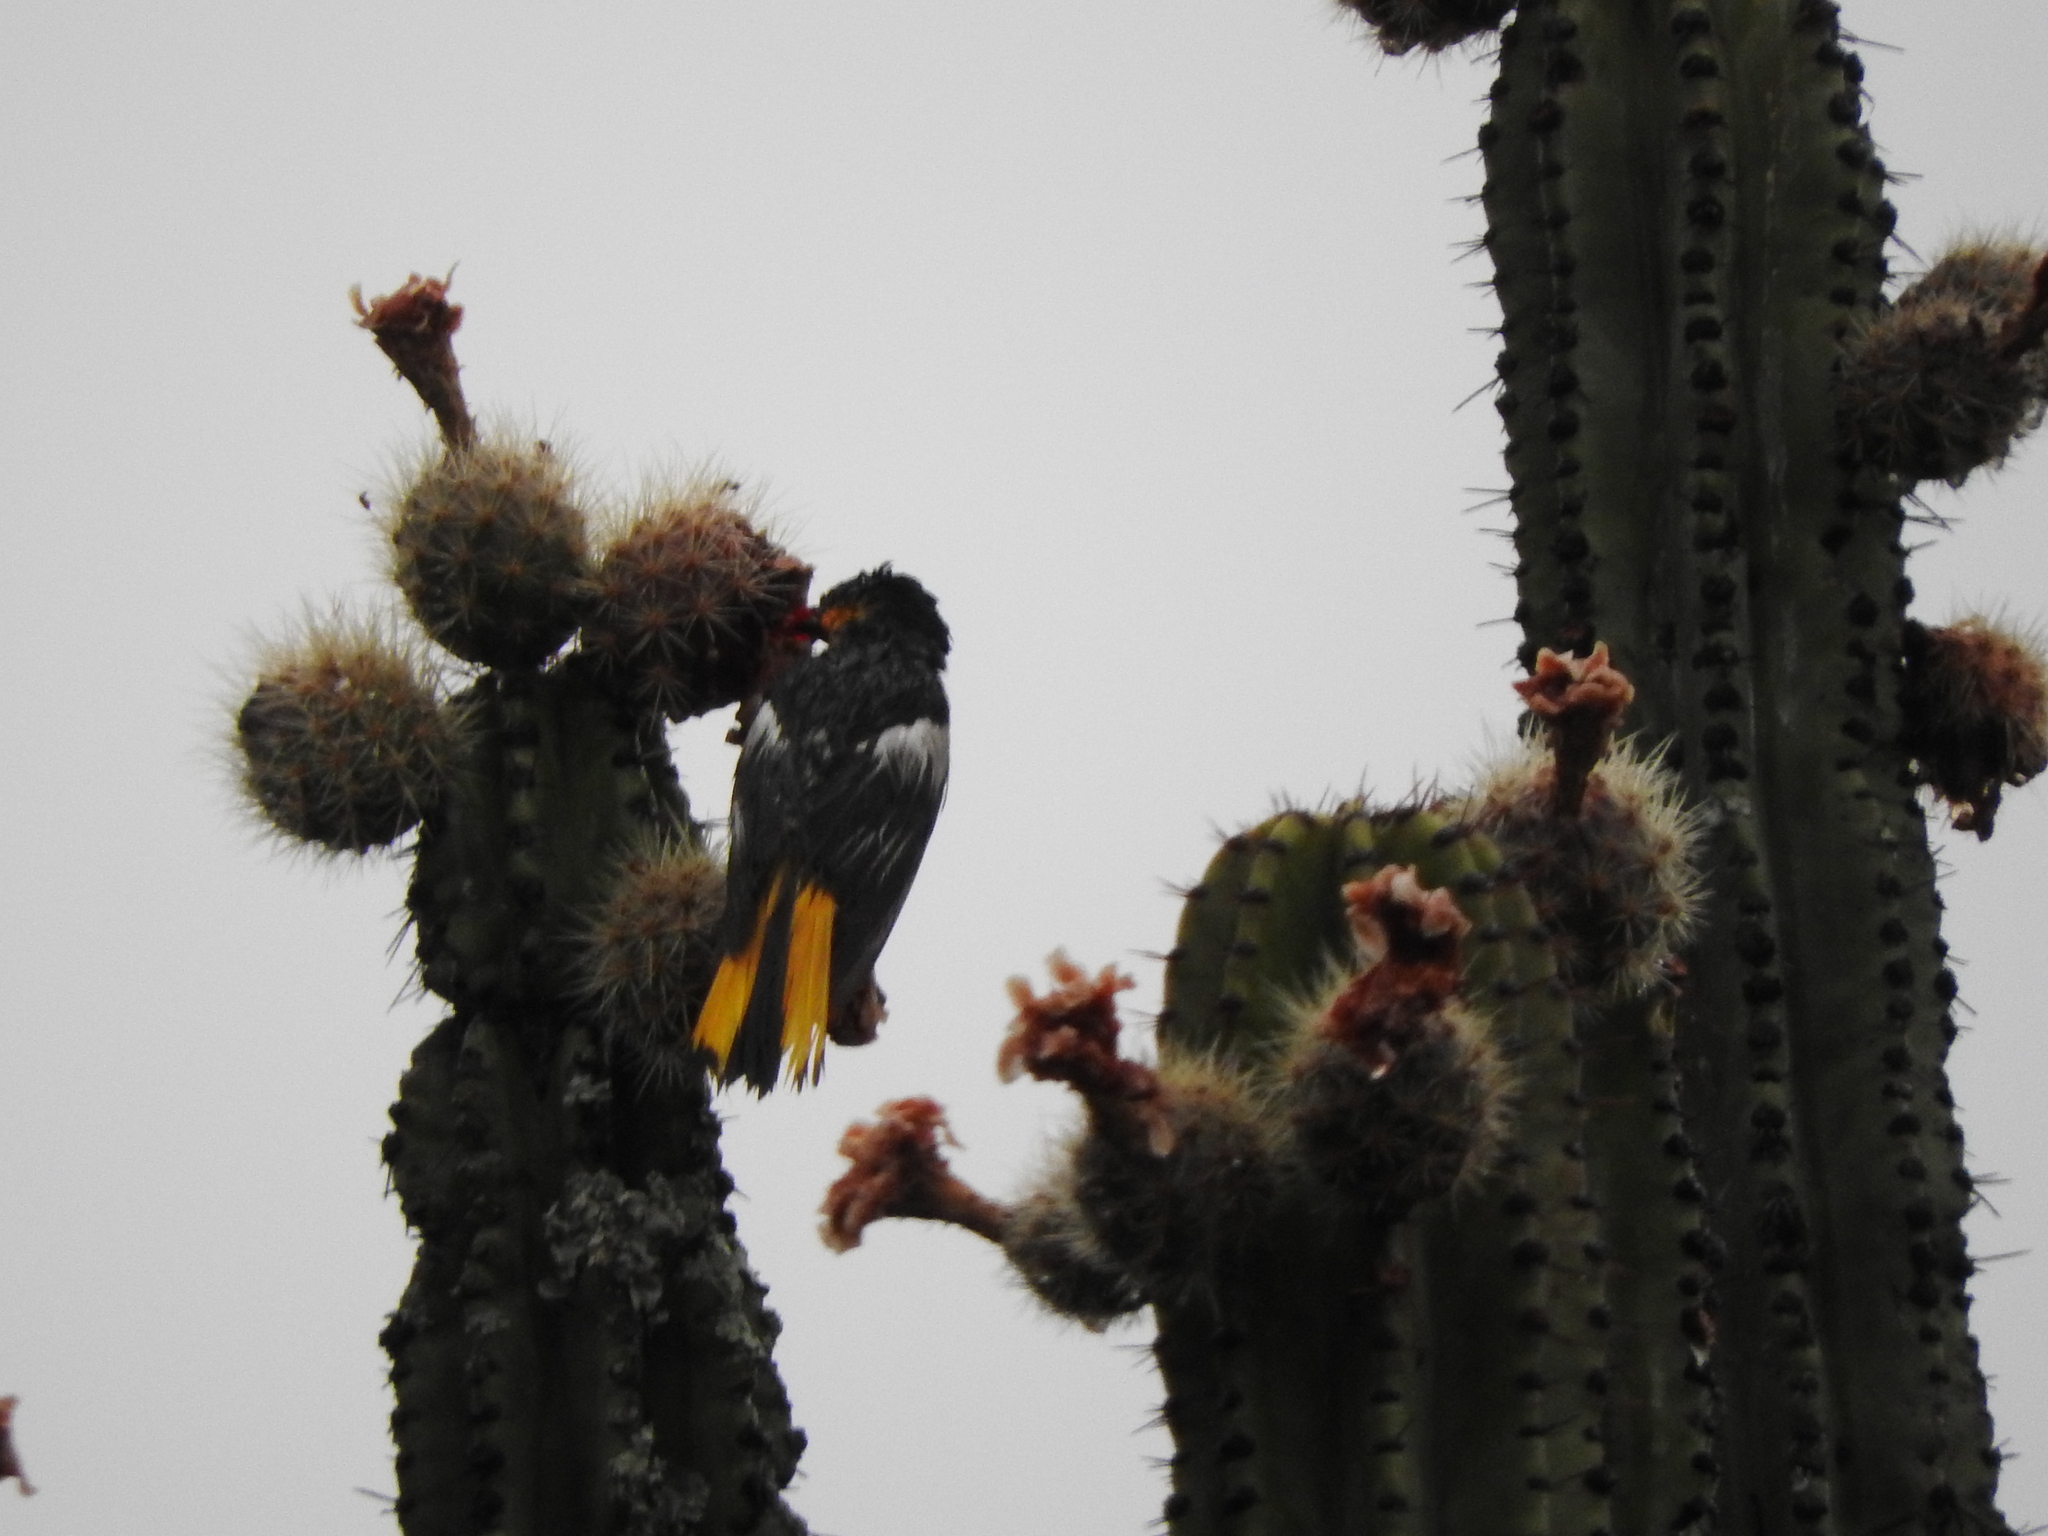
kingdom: Animalia
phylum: Chordata
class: Aves
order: Passeriformes
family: Icteridae
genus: Icterus
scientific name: Icterus abeillei
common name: Black-backed oriole
